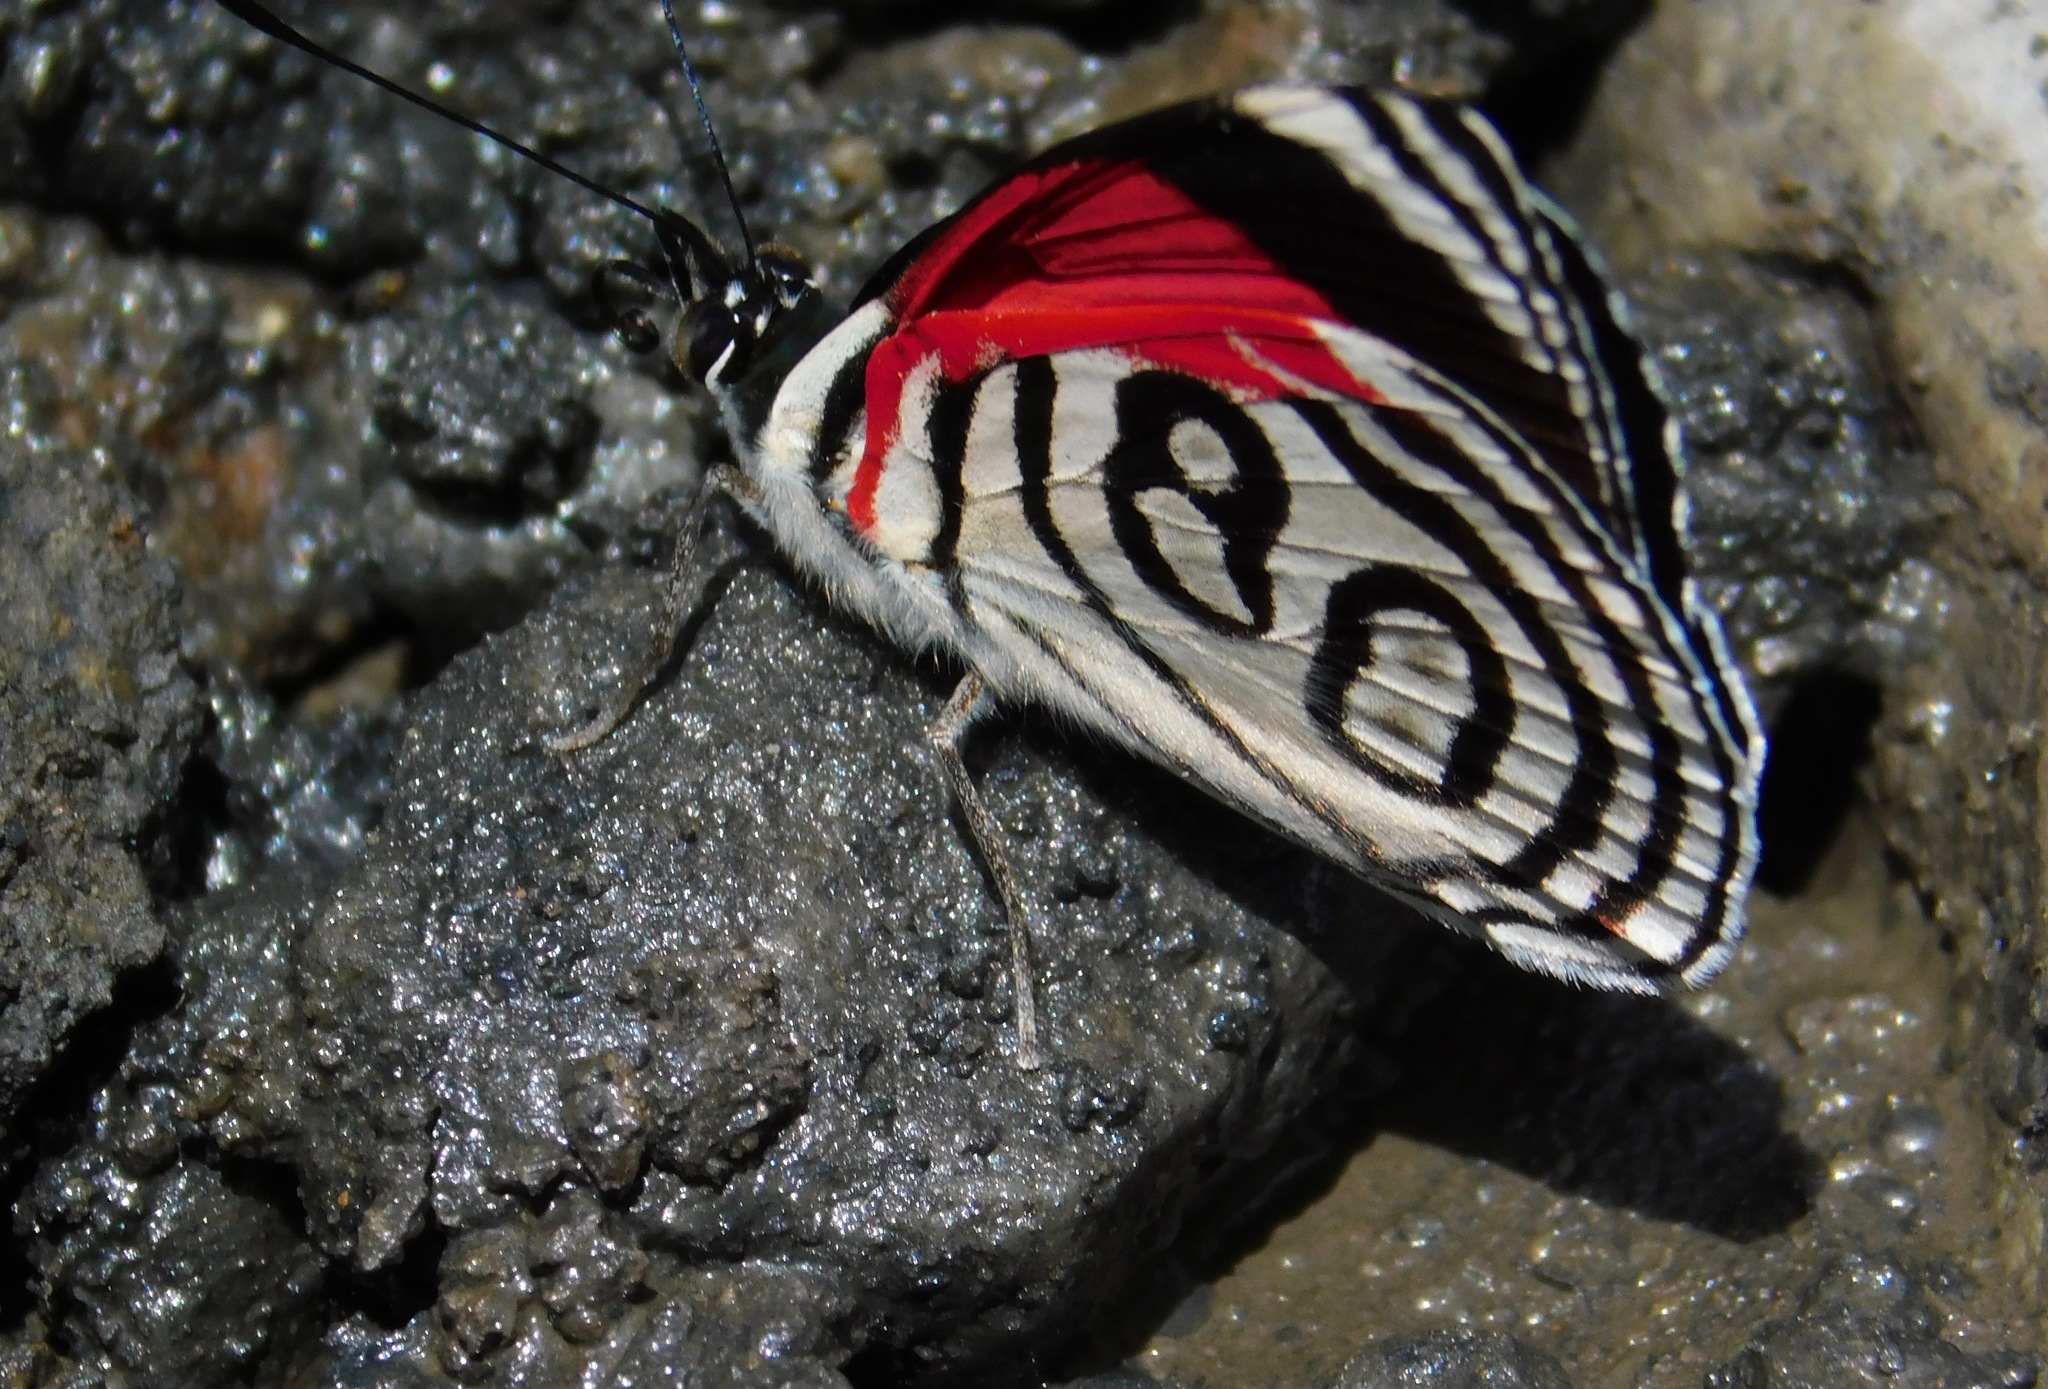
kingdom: Animalia
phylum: Arthropoda
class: Insecta
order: Lepidoptera
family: Nymphalidae
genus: Diaethria
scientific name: Diaethria gabaza
